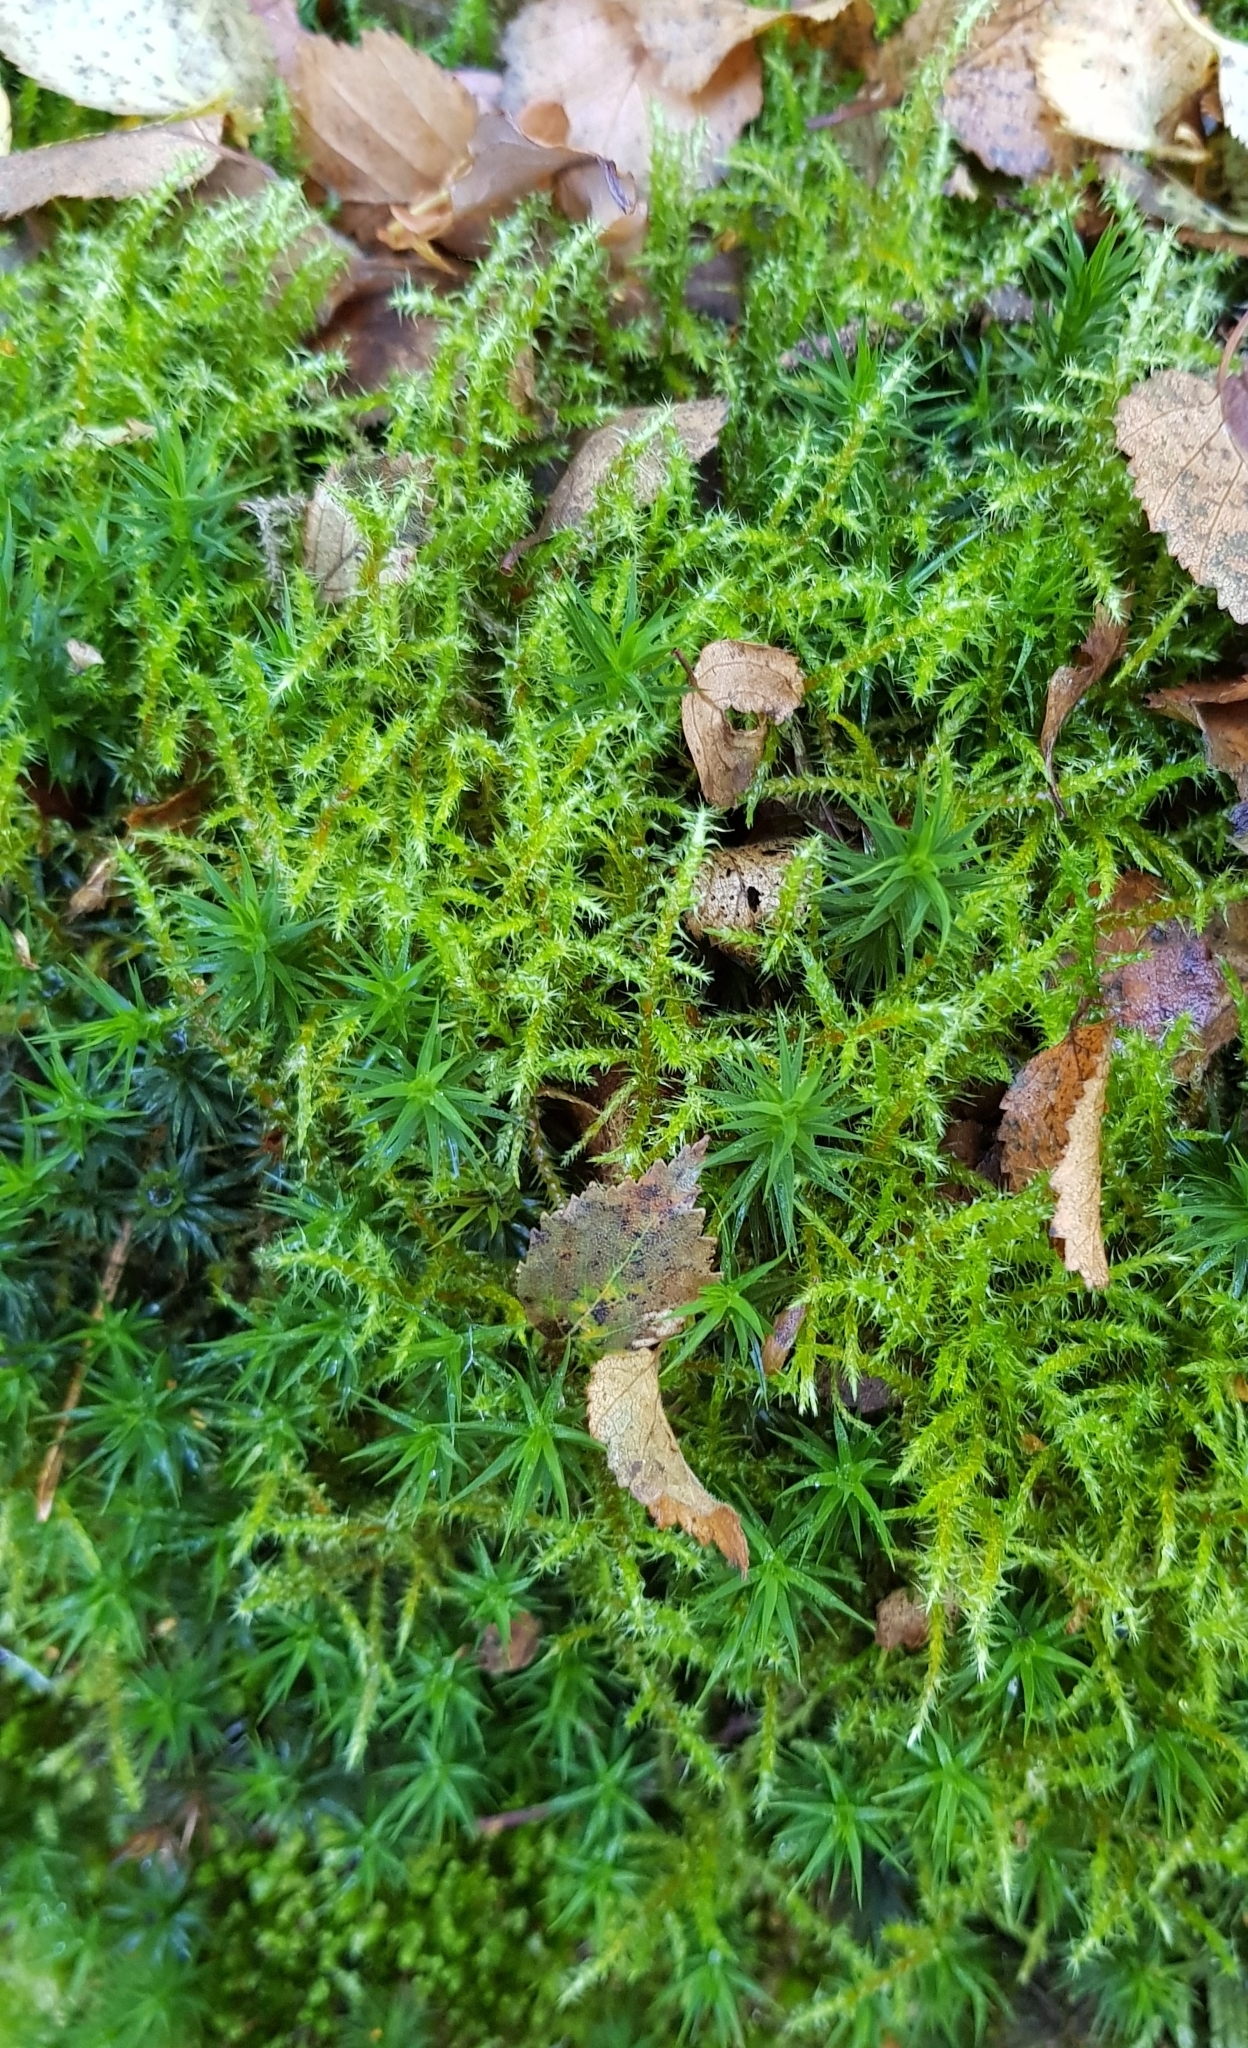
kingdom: Plantae
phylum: Bryophyta
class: Bryopsida
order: Hypnales
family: Hylocomiaceae
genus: Rhytidiadelphus
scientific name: Rhytidiadelphus squarrosus
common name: Springy turf-moss
